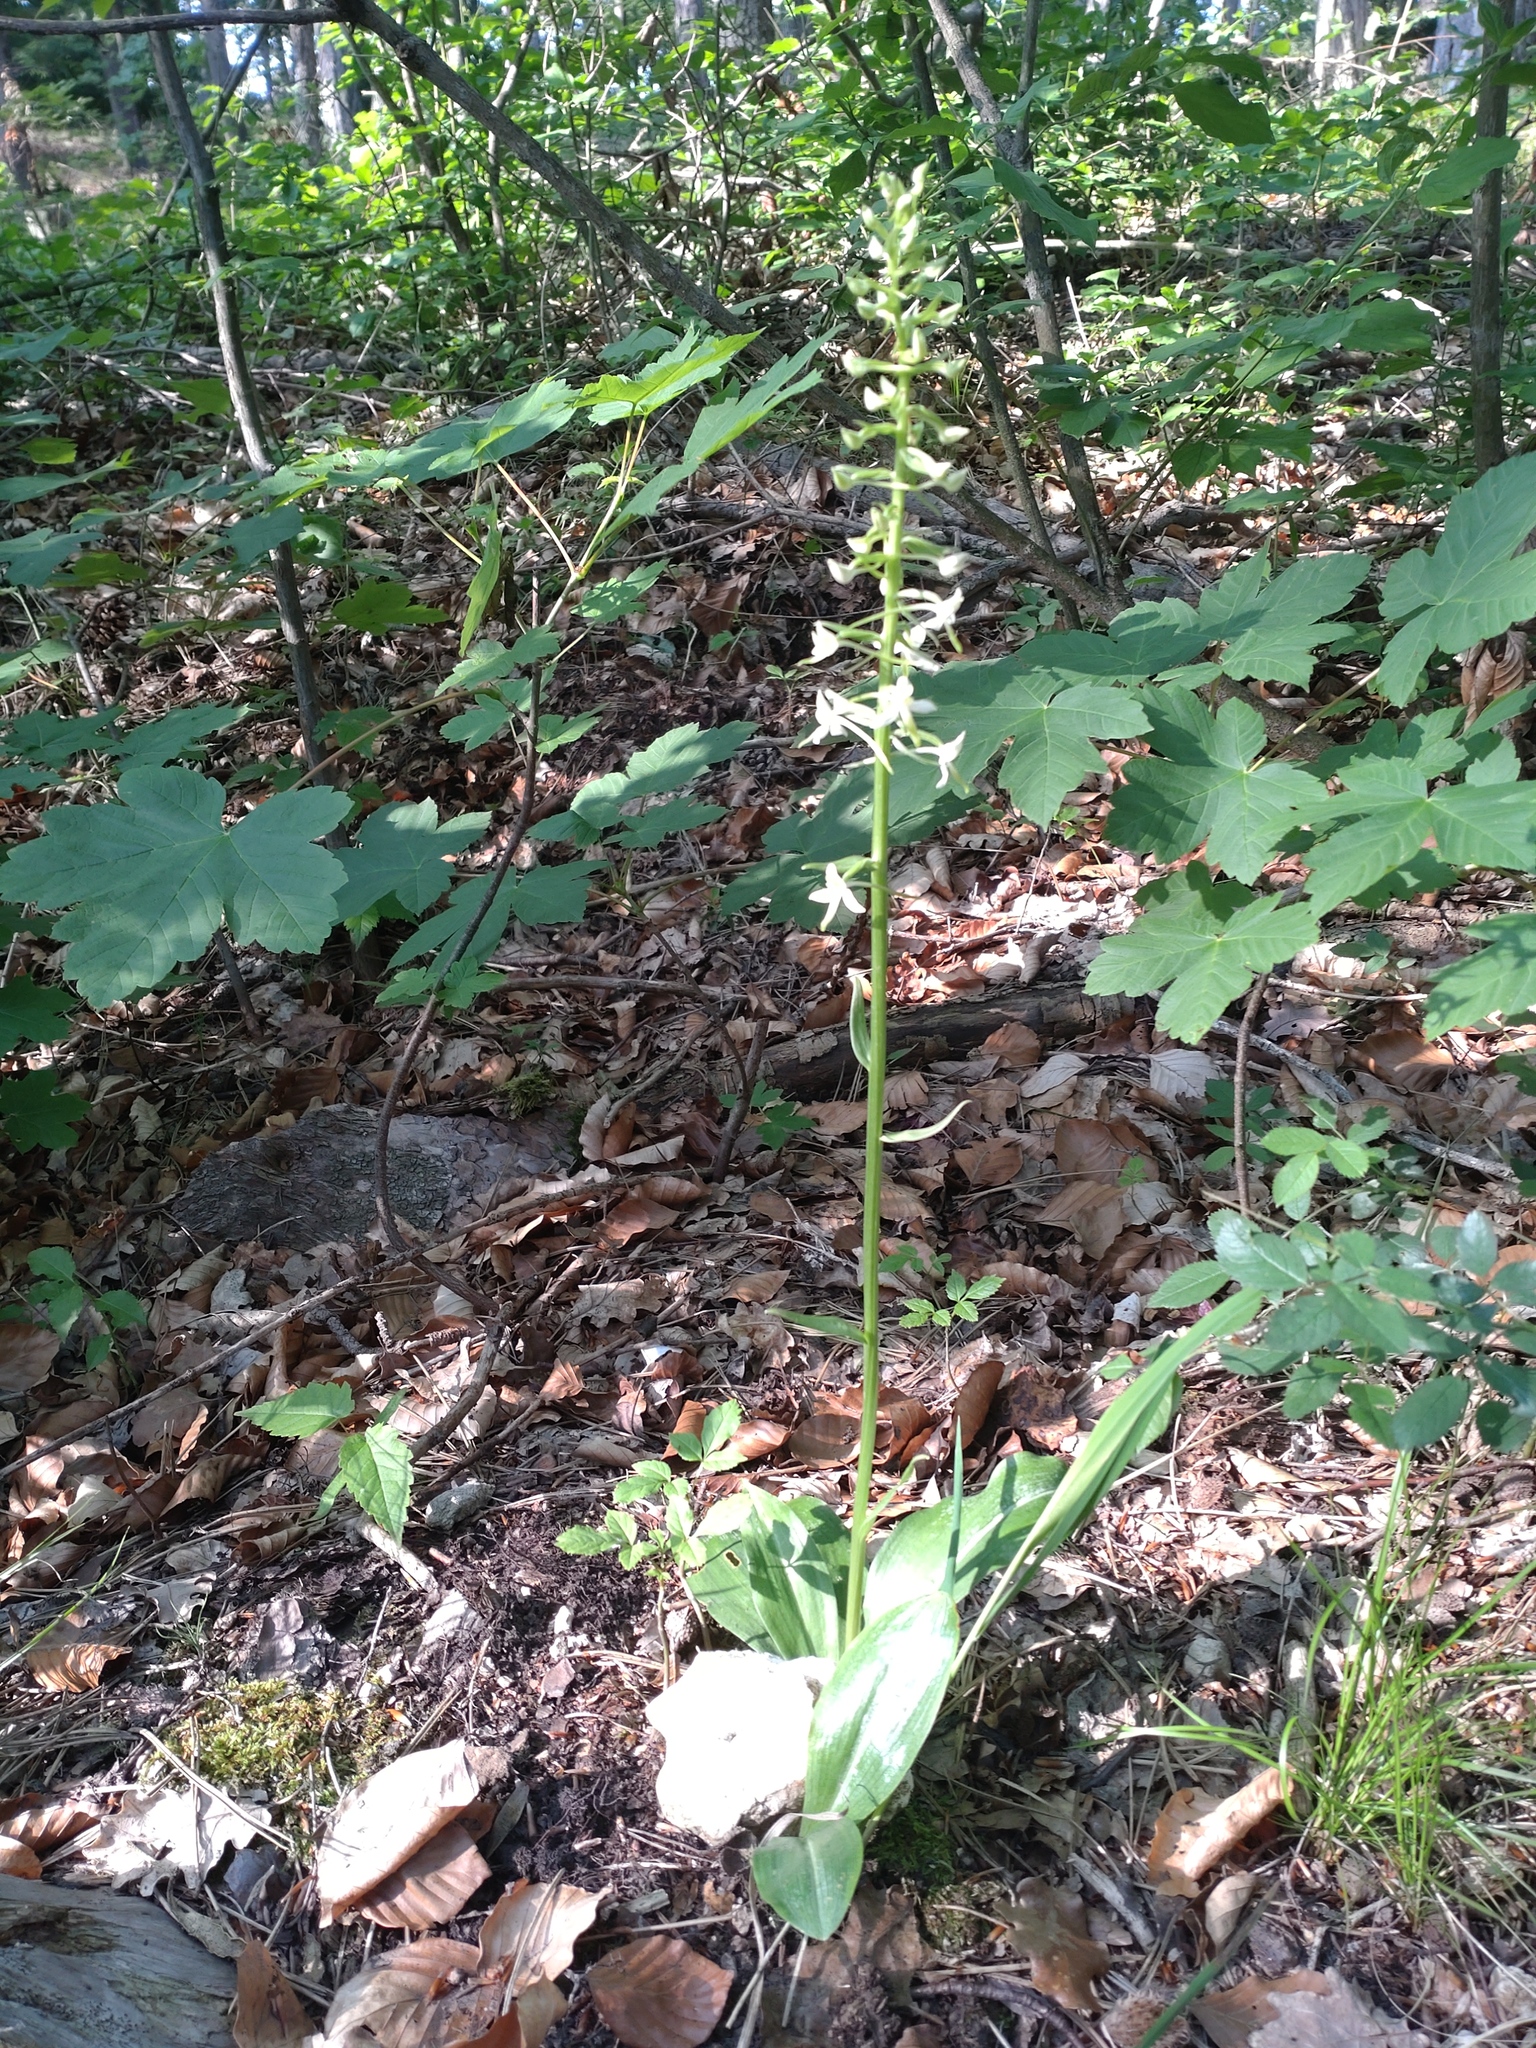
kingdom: Plantae
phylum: Tracheophyta
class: Liliopsida
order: Asparagales
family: Orchidaceae
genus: Platanthera
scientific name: Platanthera bifolia
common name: Lesser butterfly-orchid
